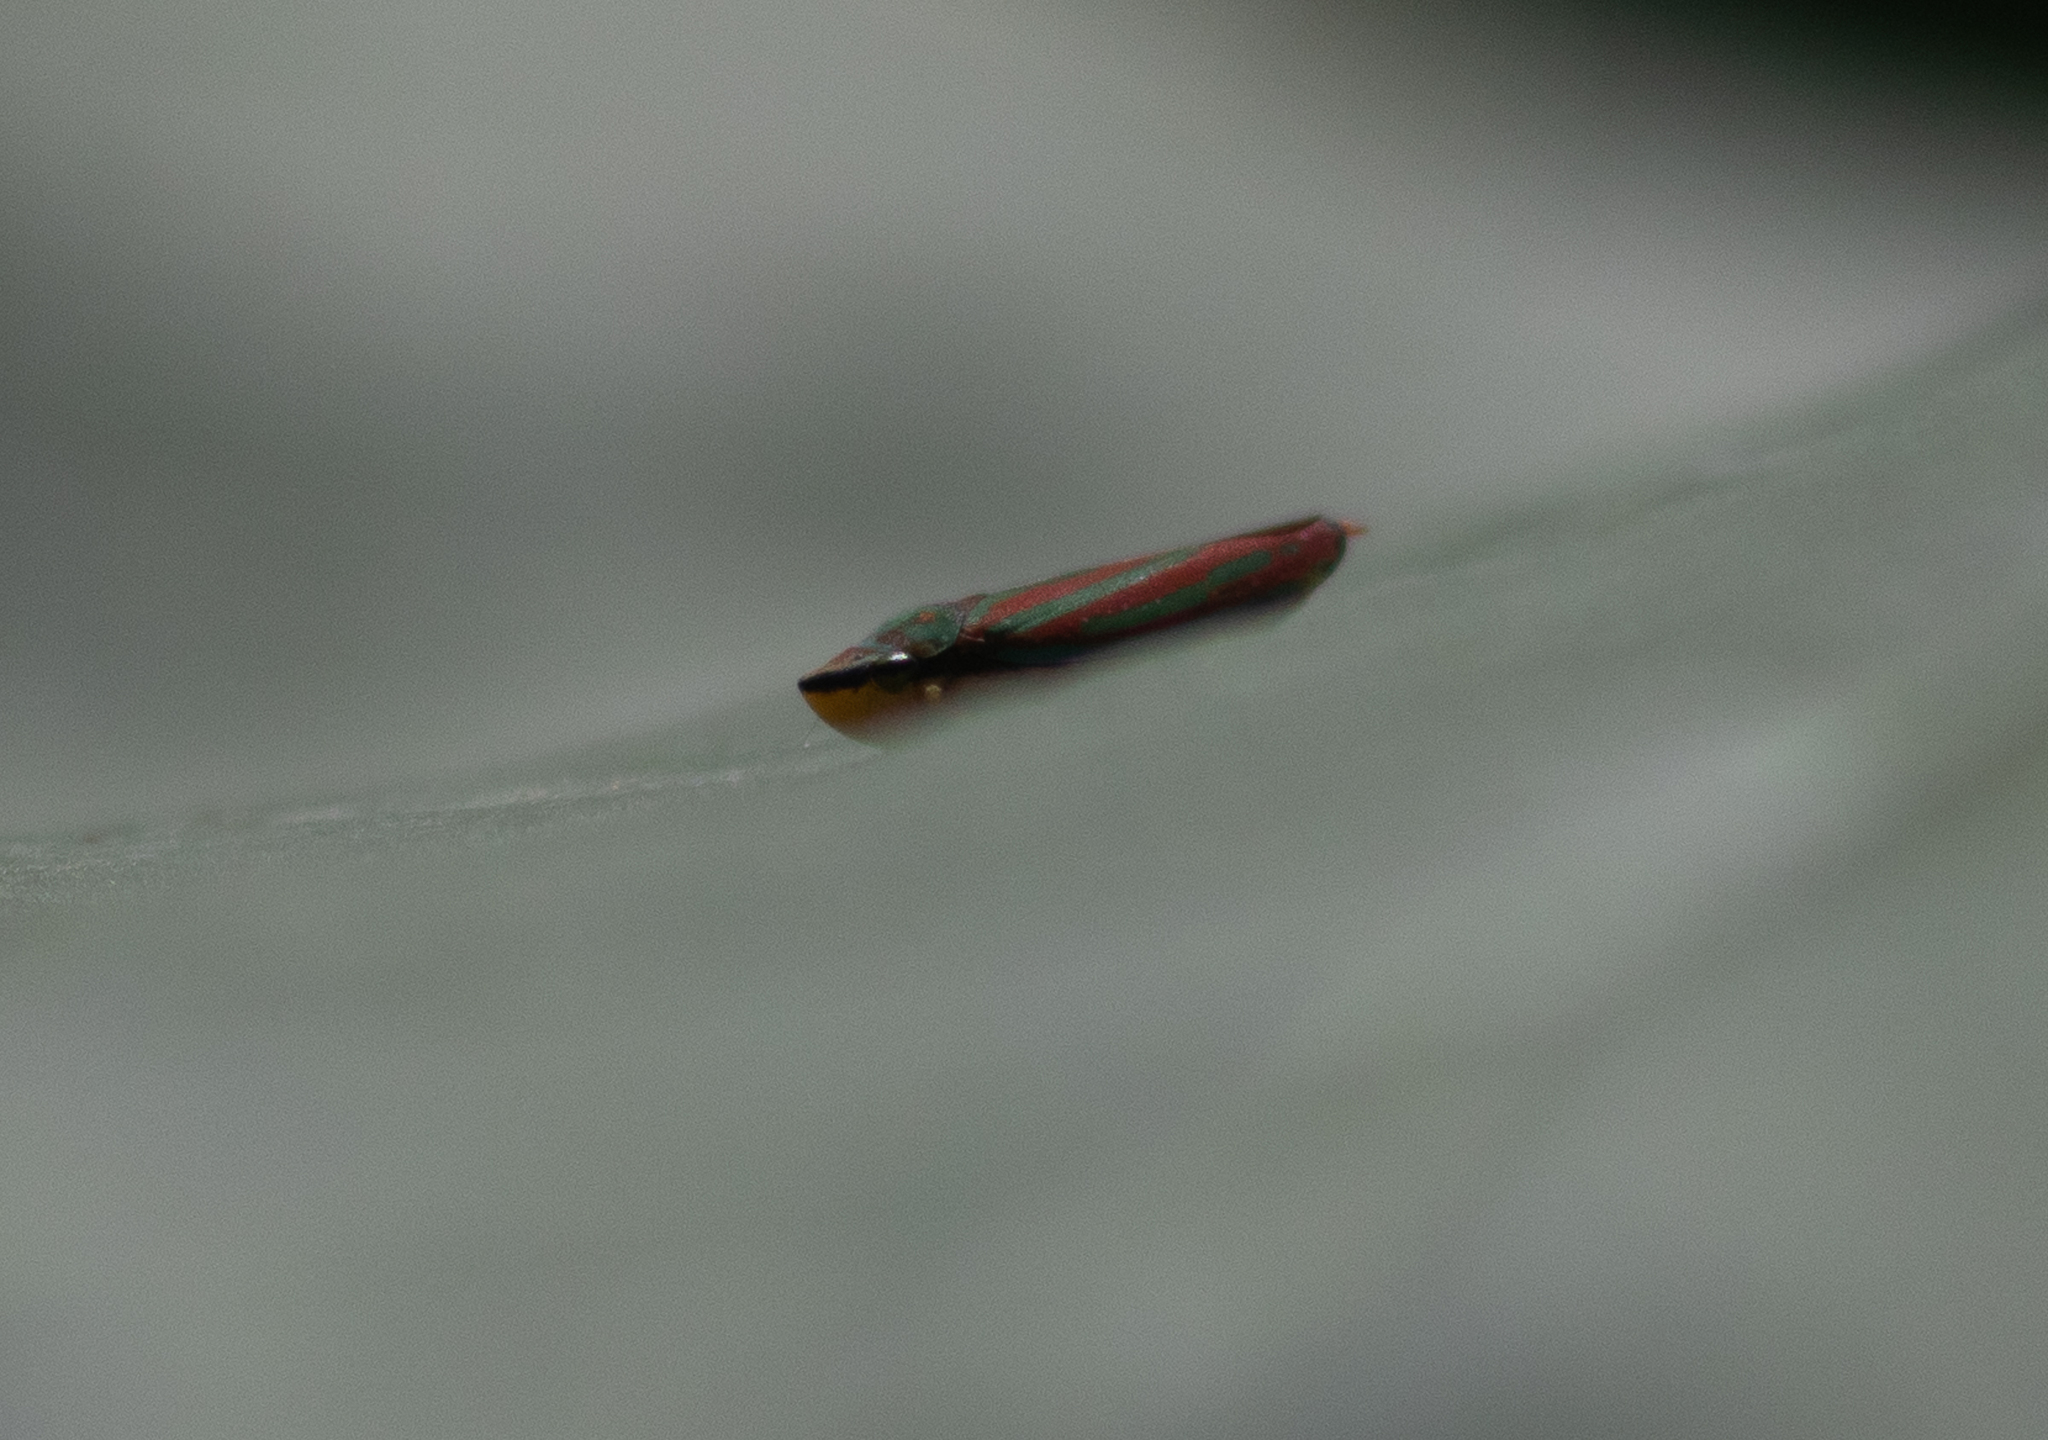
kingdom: Animalia
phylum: Arthropoda
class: Insecta
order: Hemiptera
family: Cicadellidae
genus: Graphocephala
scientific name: Graphocephala coccinea
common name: Candy-striped leafhopper
